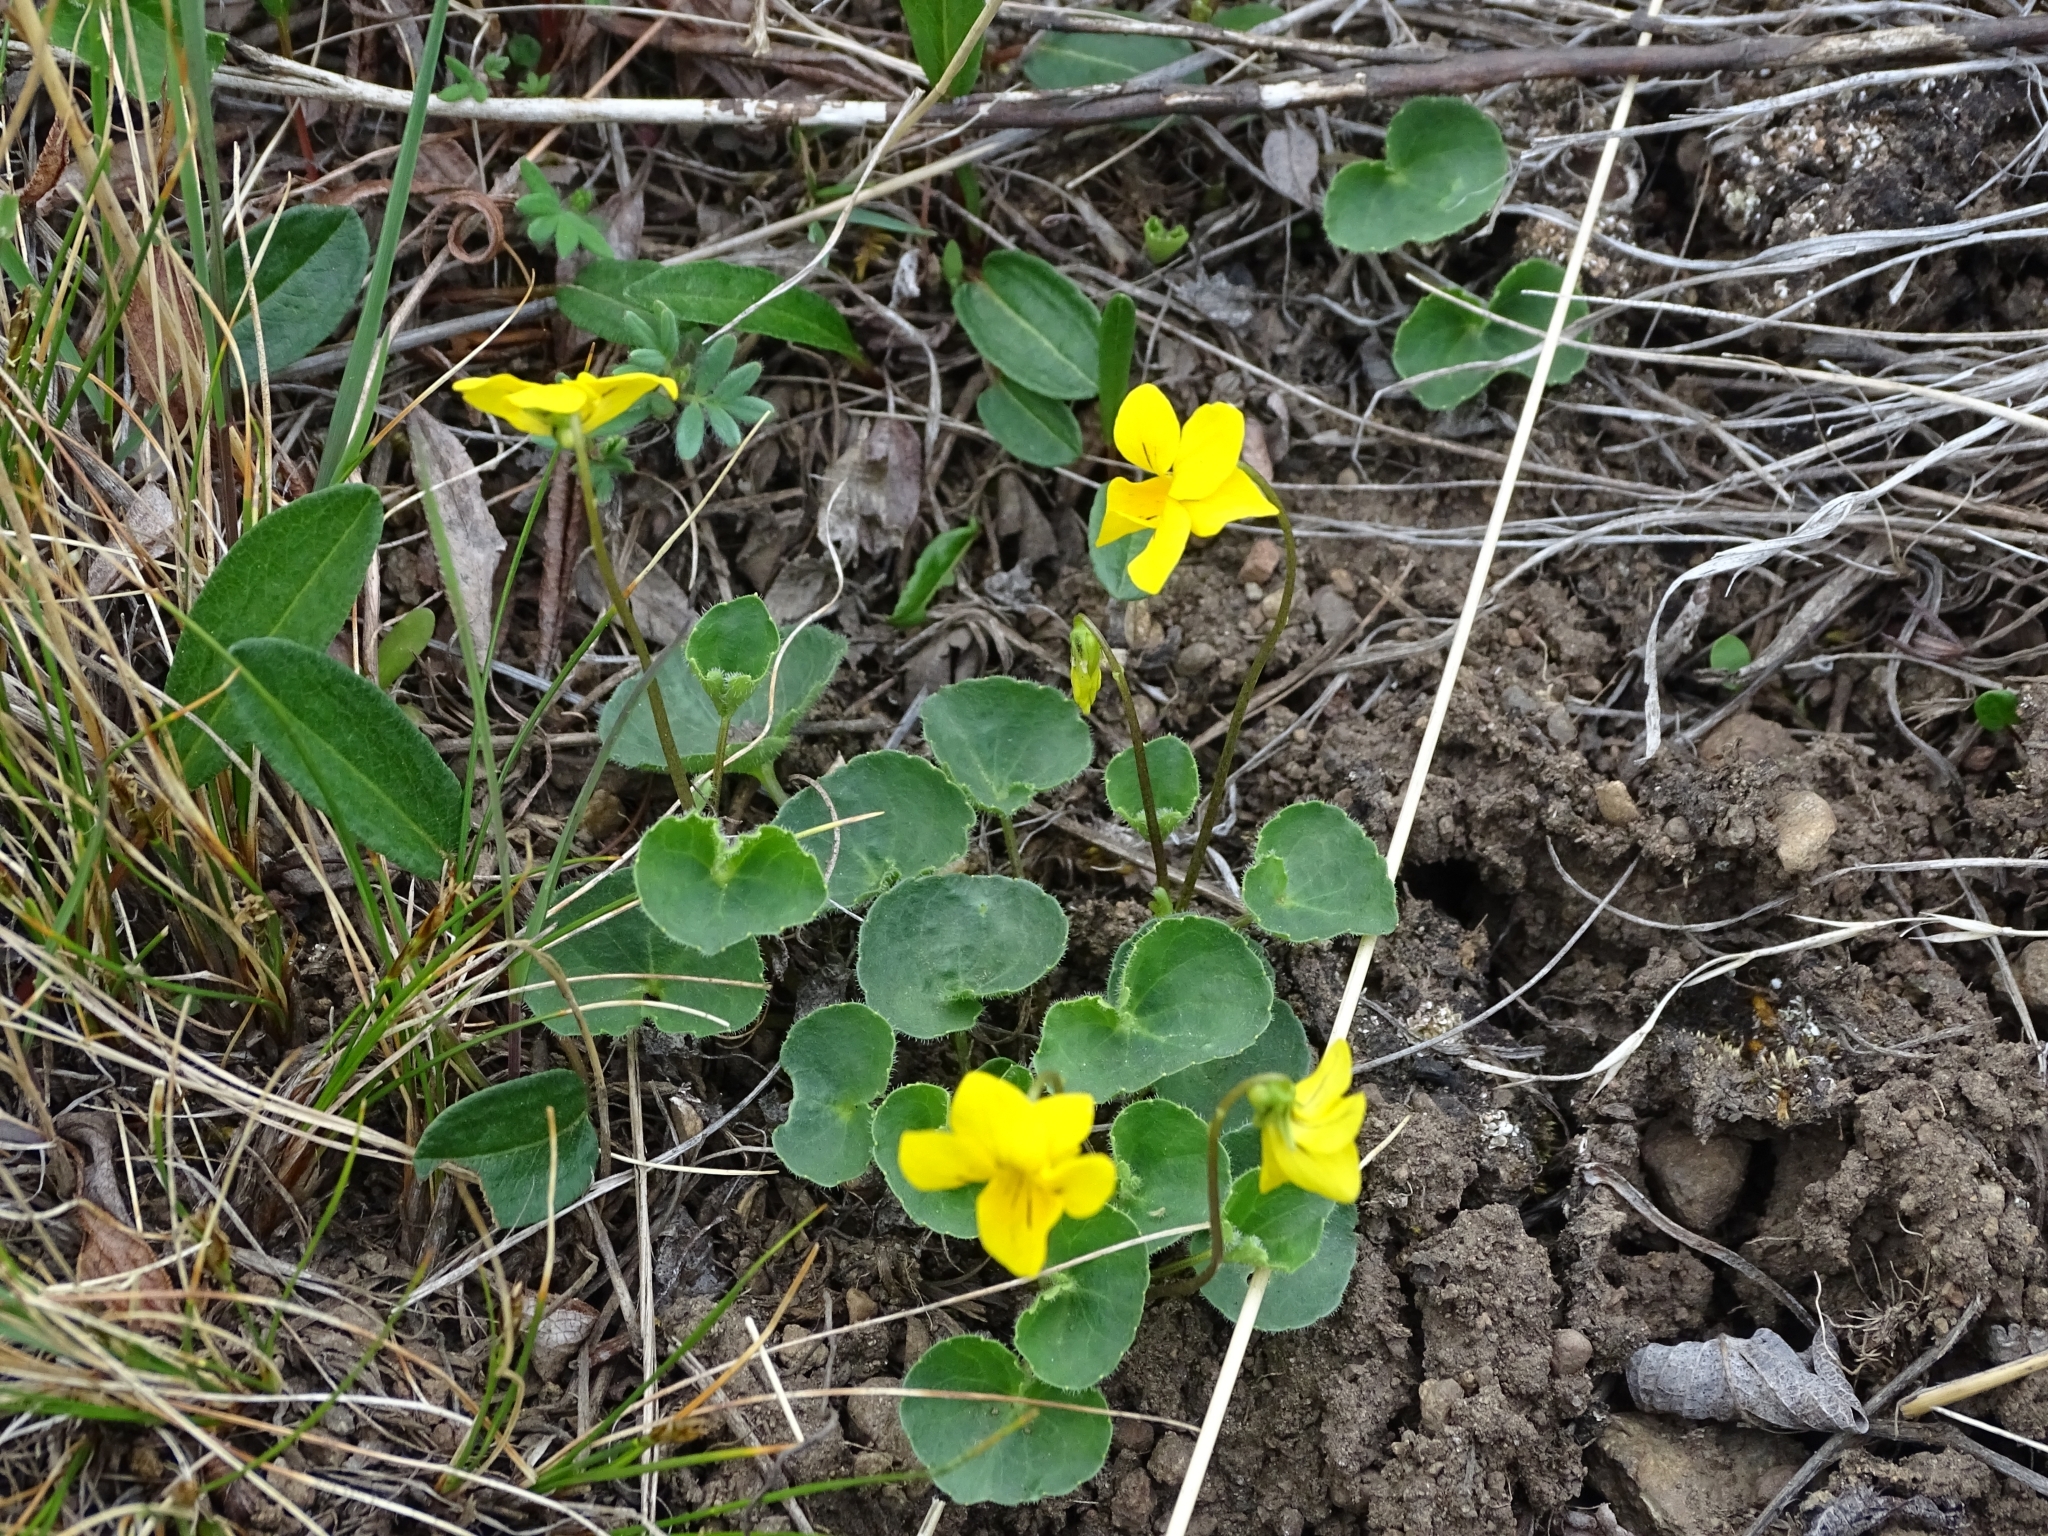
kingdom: Plantae
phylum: Tracheophyta
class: Magnoliopsida
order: Malpighiales
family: Violaceae
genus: Viola
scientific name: Viola biflora
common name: Alpine yellow violet
